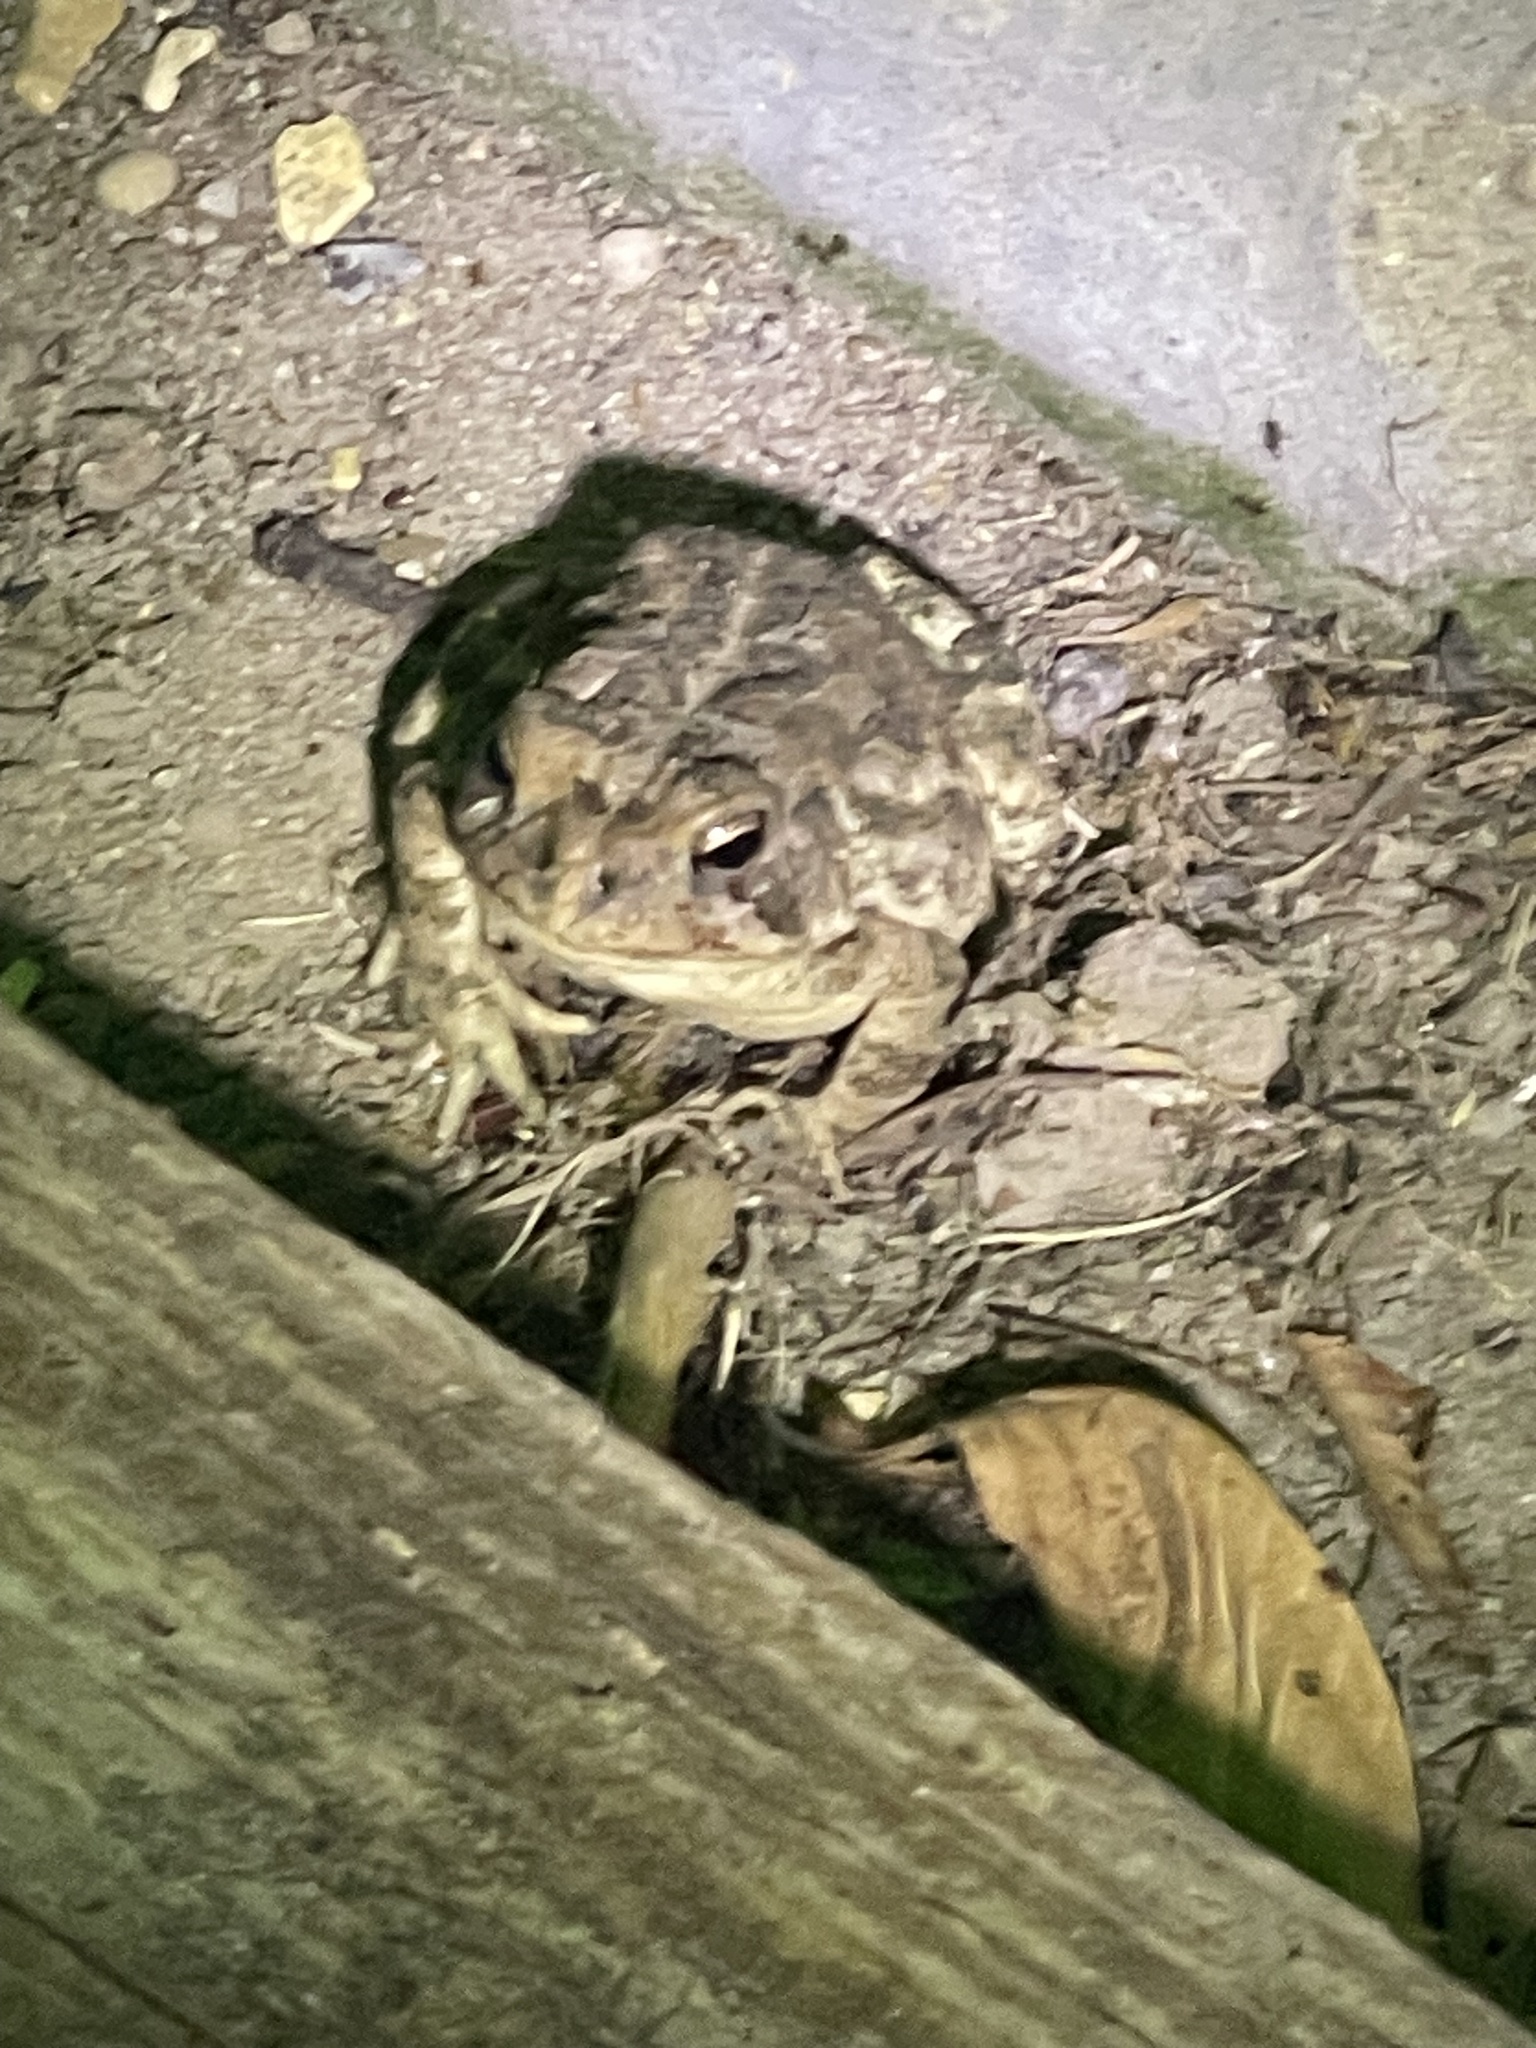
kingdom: Animalia
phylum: Chordata
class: Amphibia
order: Anura
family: Bufonidae
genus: Anaxyrus
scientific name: Anaxyrus fowleri
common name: Fowler's toad
